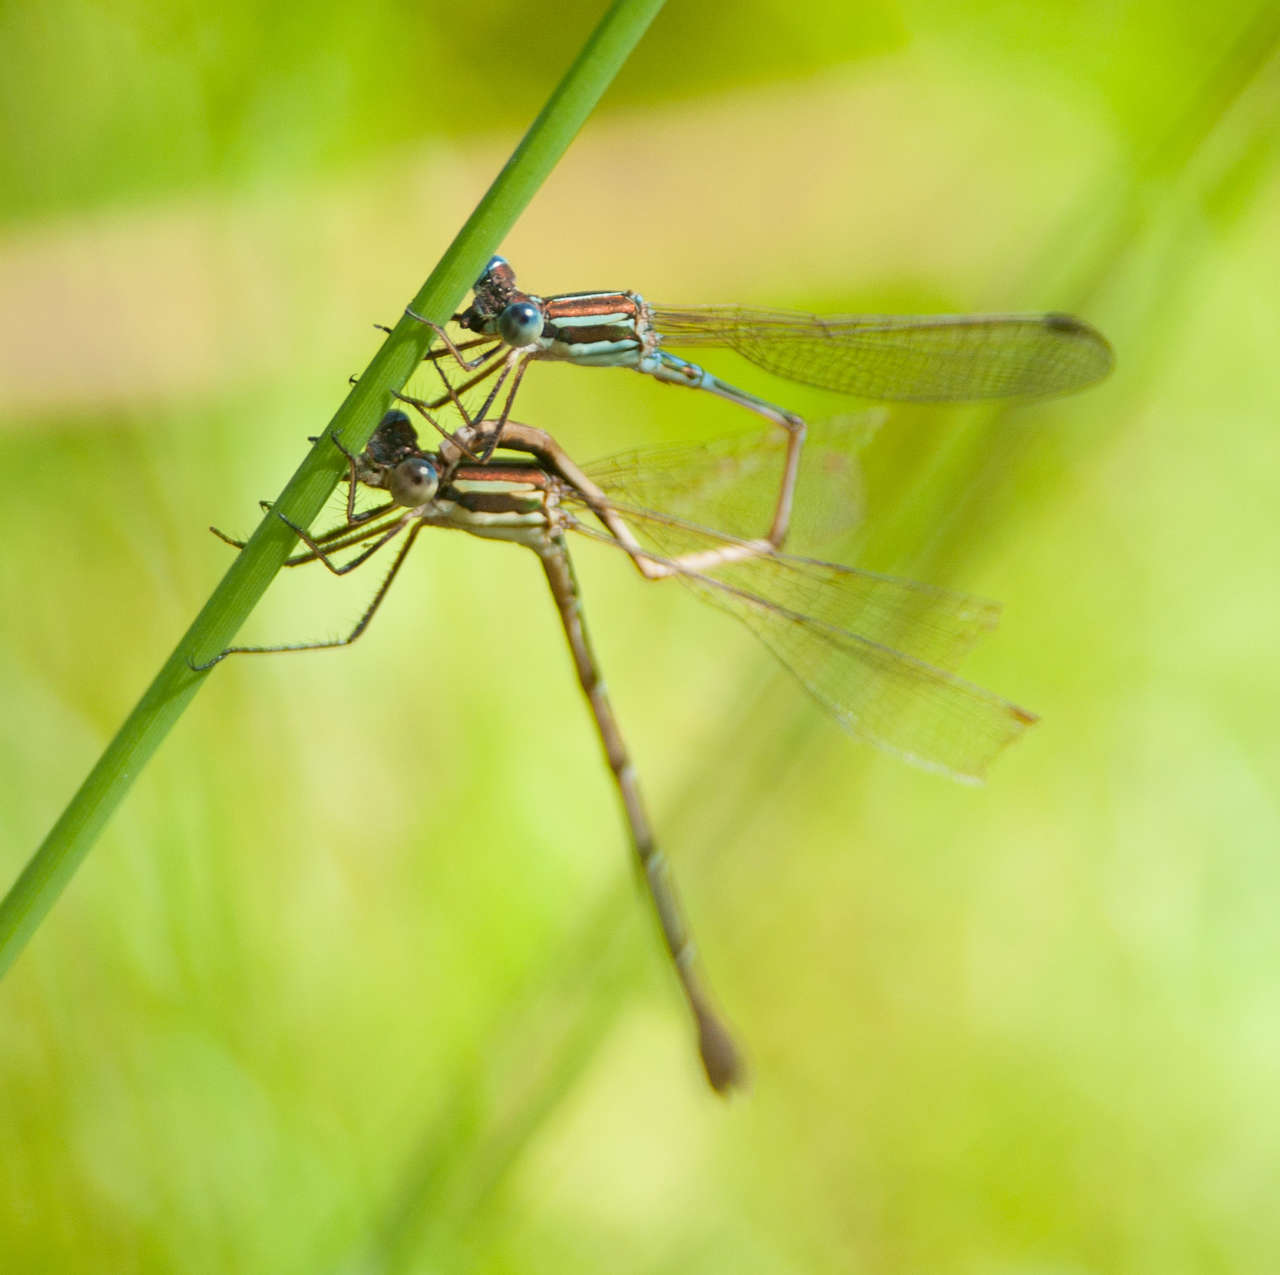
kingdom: Animalia
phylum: Arthropoda
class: Insecta
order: Odonata
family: Lestidae
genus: Austrolestes
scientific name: Austrolestes analis
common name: Slender ringtail
